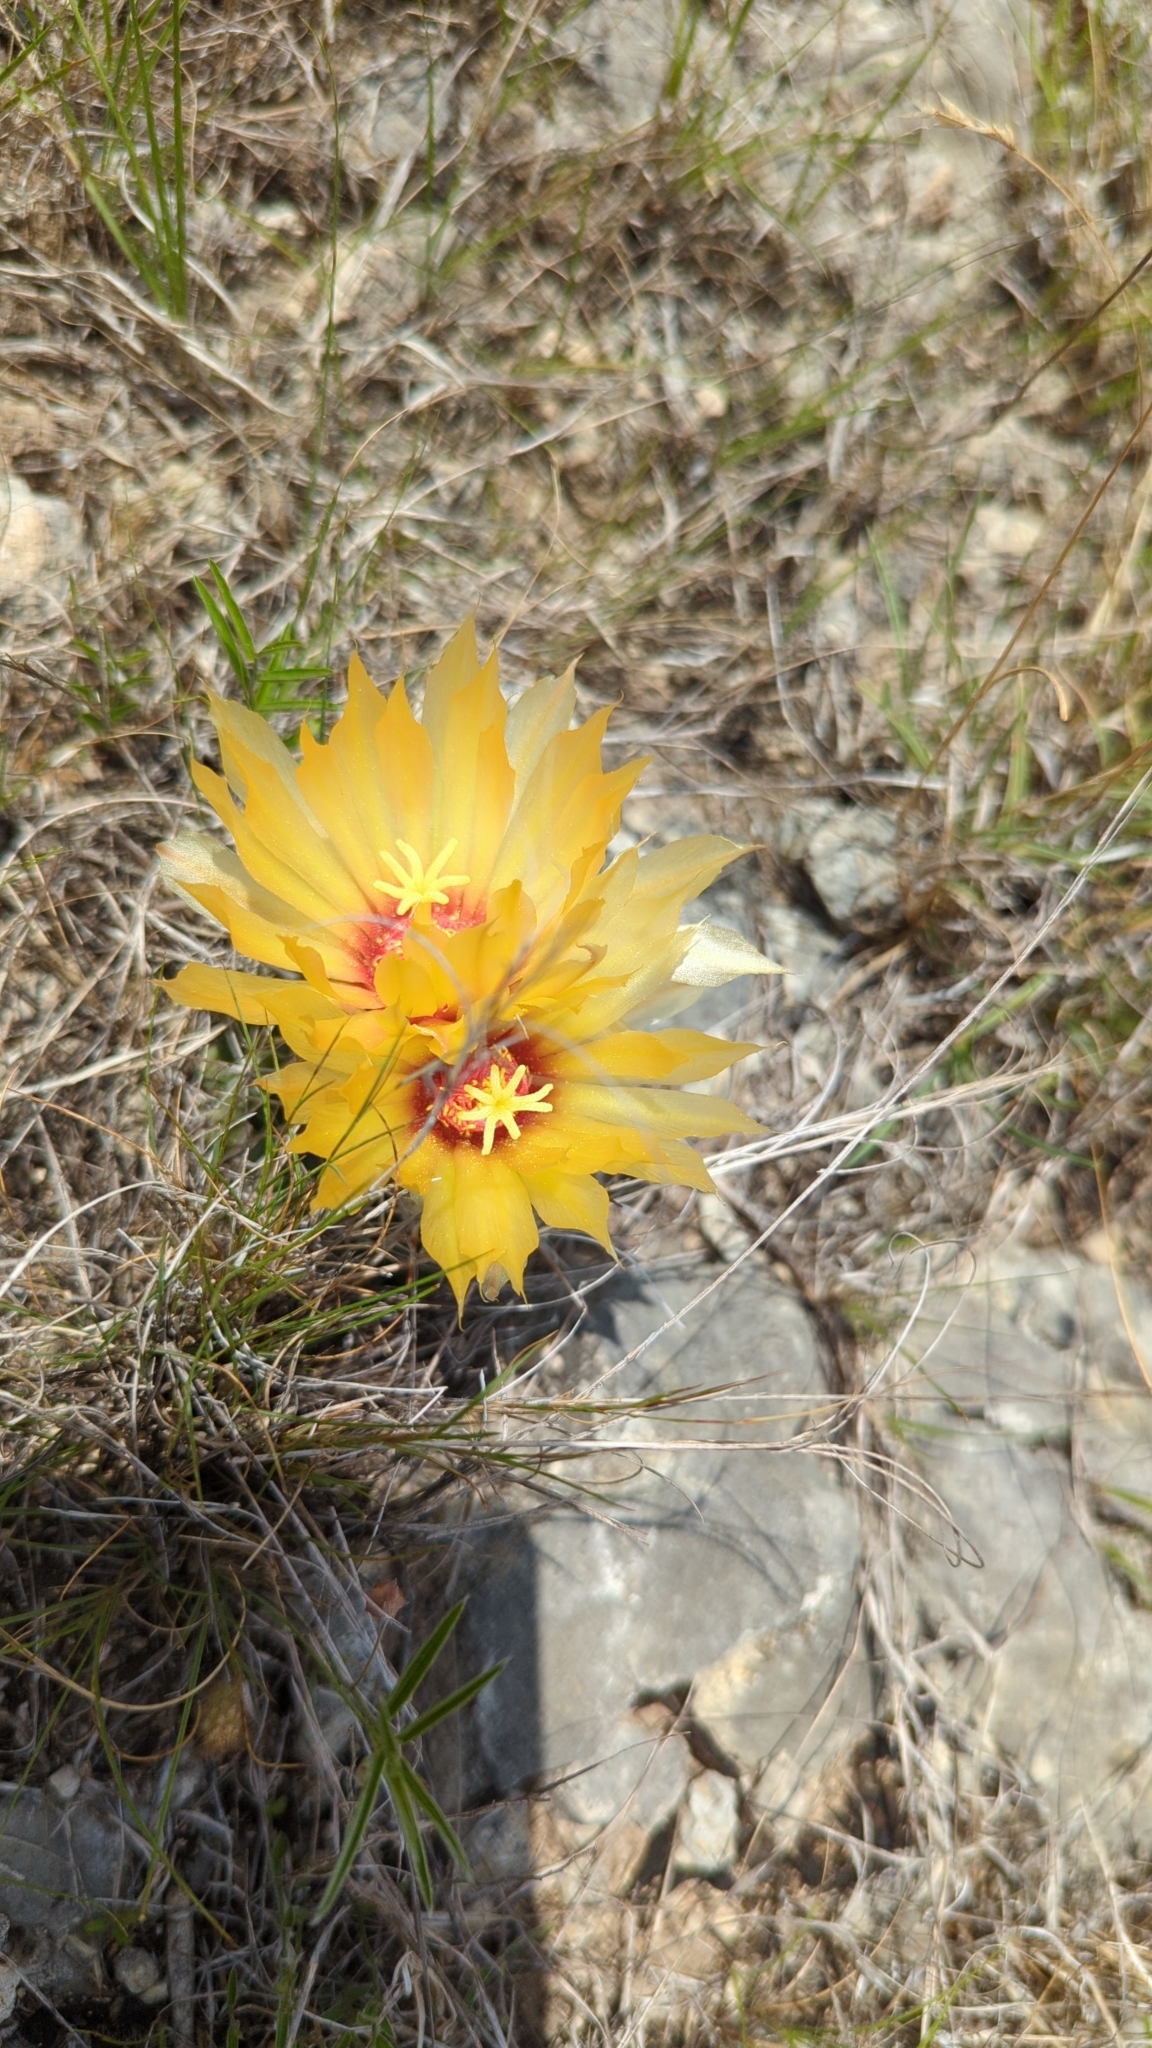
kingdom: Plantae
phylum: Tracheophyta
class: Magnoliopsida
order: Caryophyllales
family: Cactaceae
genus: Coryphantha
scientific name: Coryphantha sulcata
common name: Finger cactus
